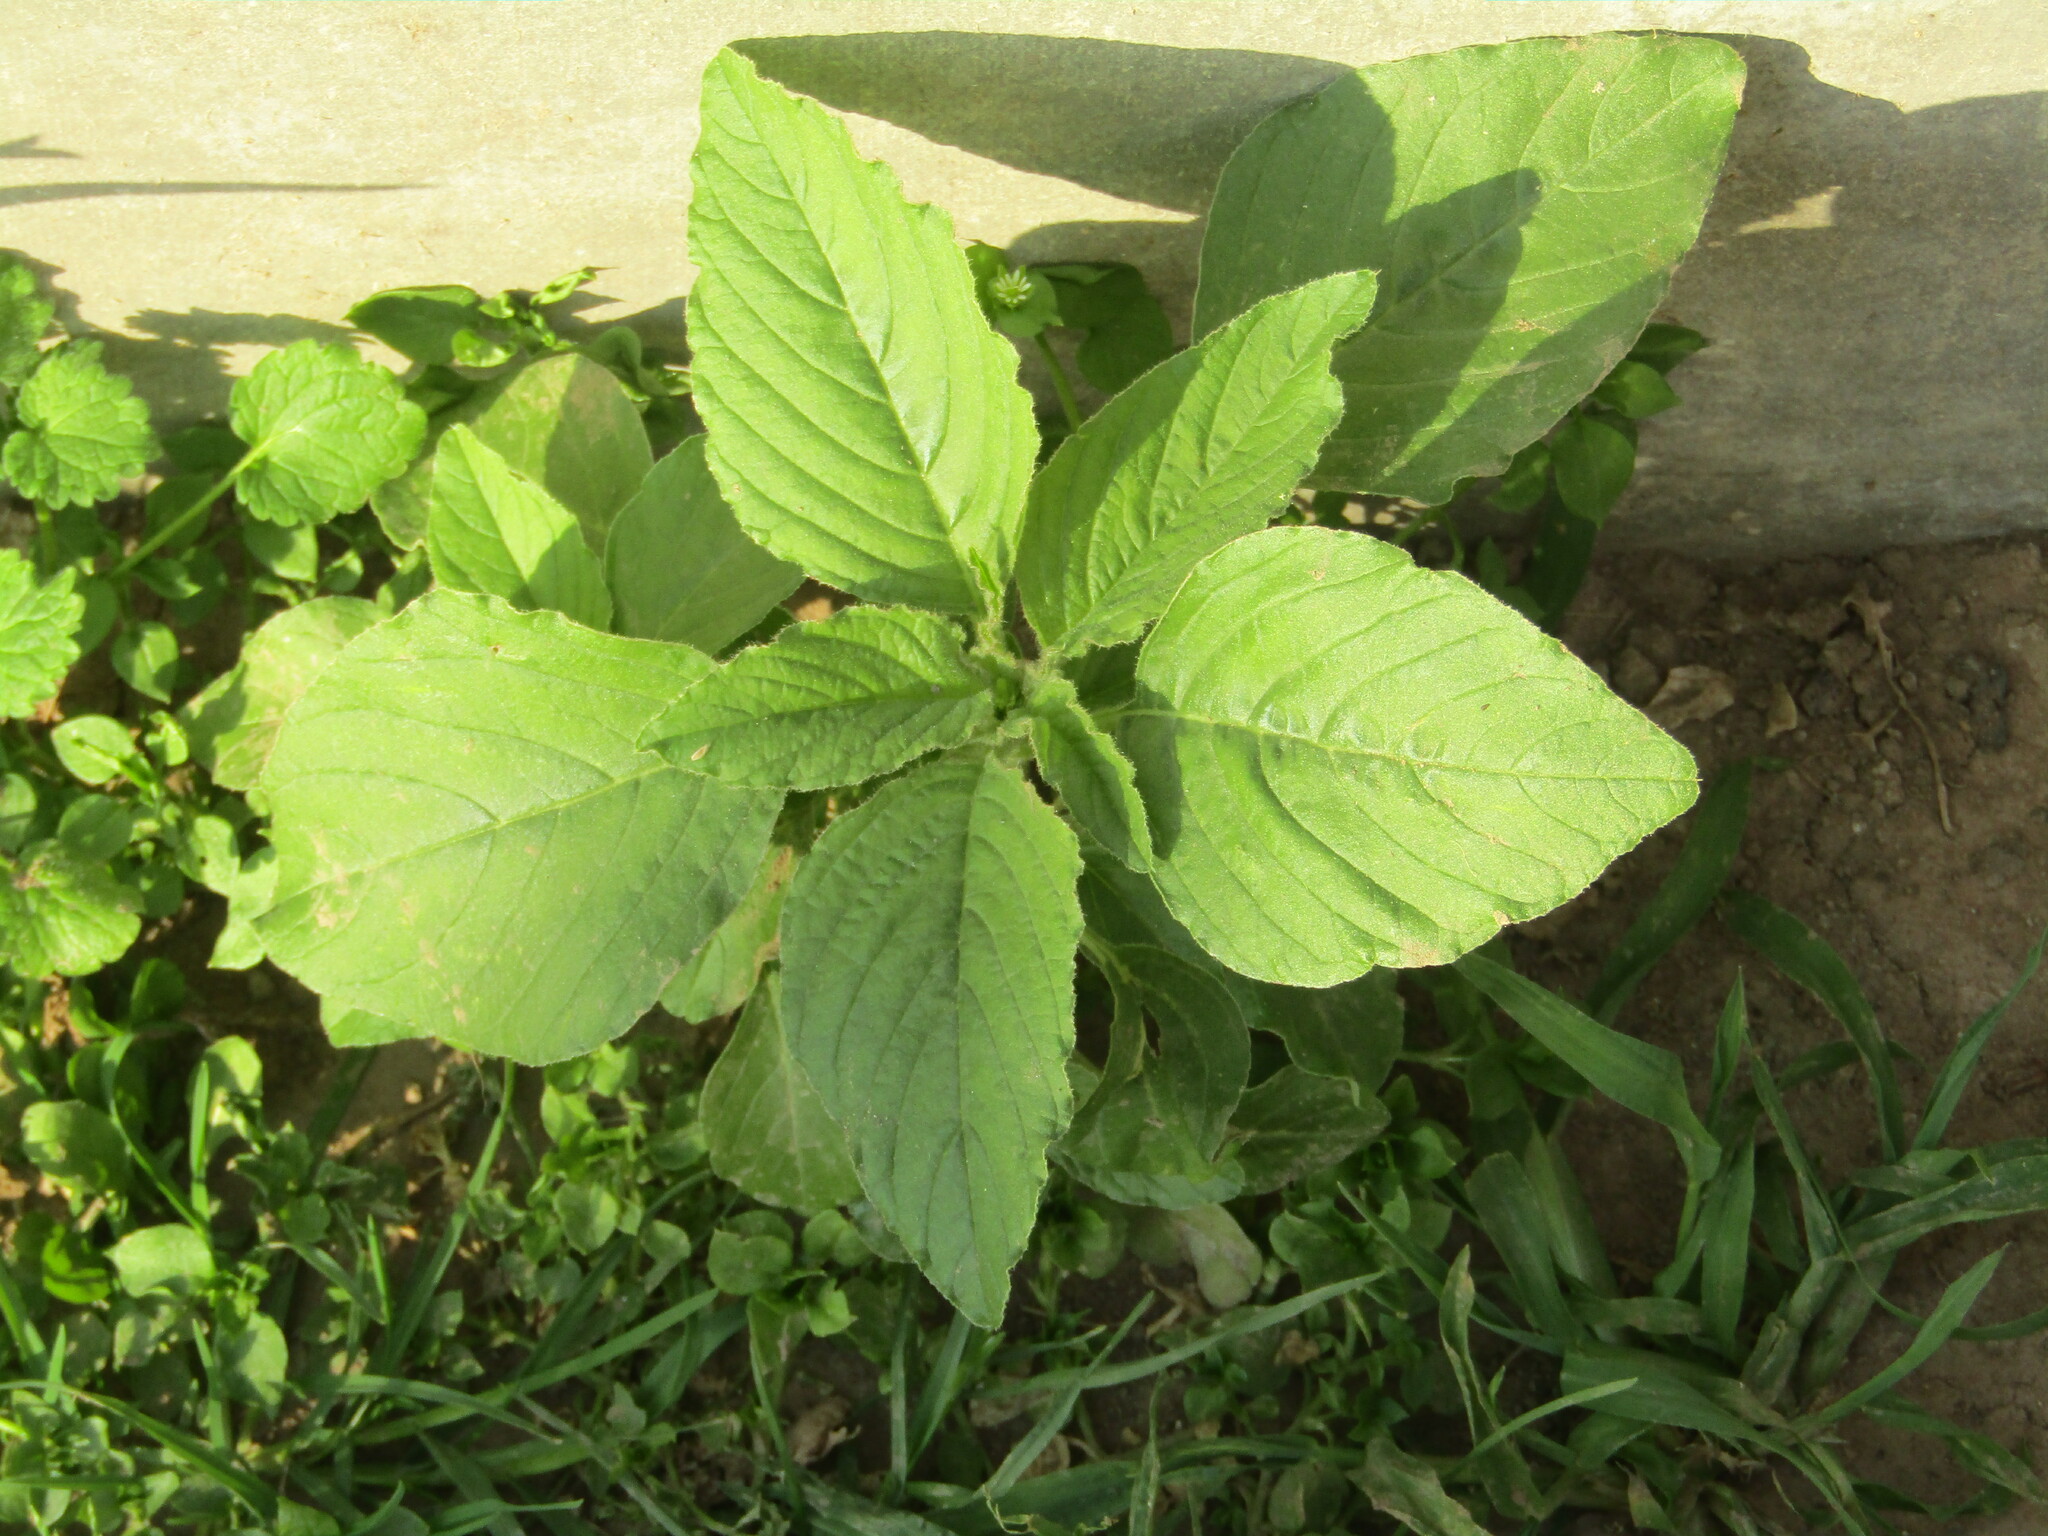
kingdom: Plantae
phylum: Tracheophyta
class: Magnoliopsida
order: Caryophyllales
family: Amaranthaceae
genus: Amaranthus
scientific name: Amaranthus retroflexus
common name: Redroot amaranth
